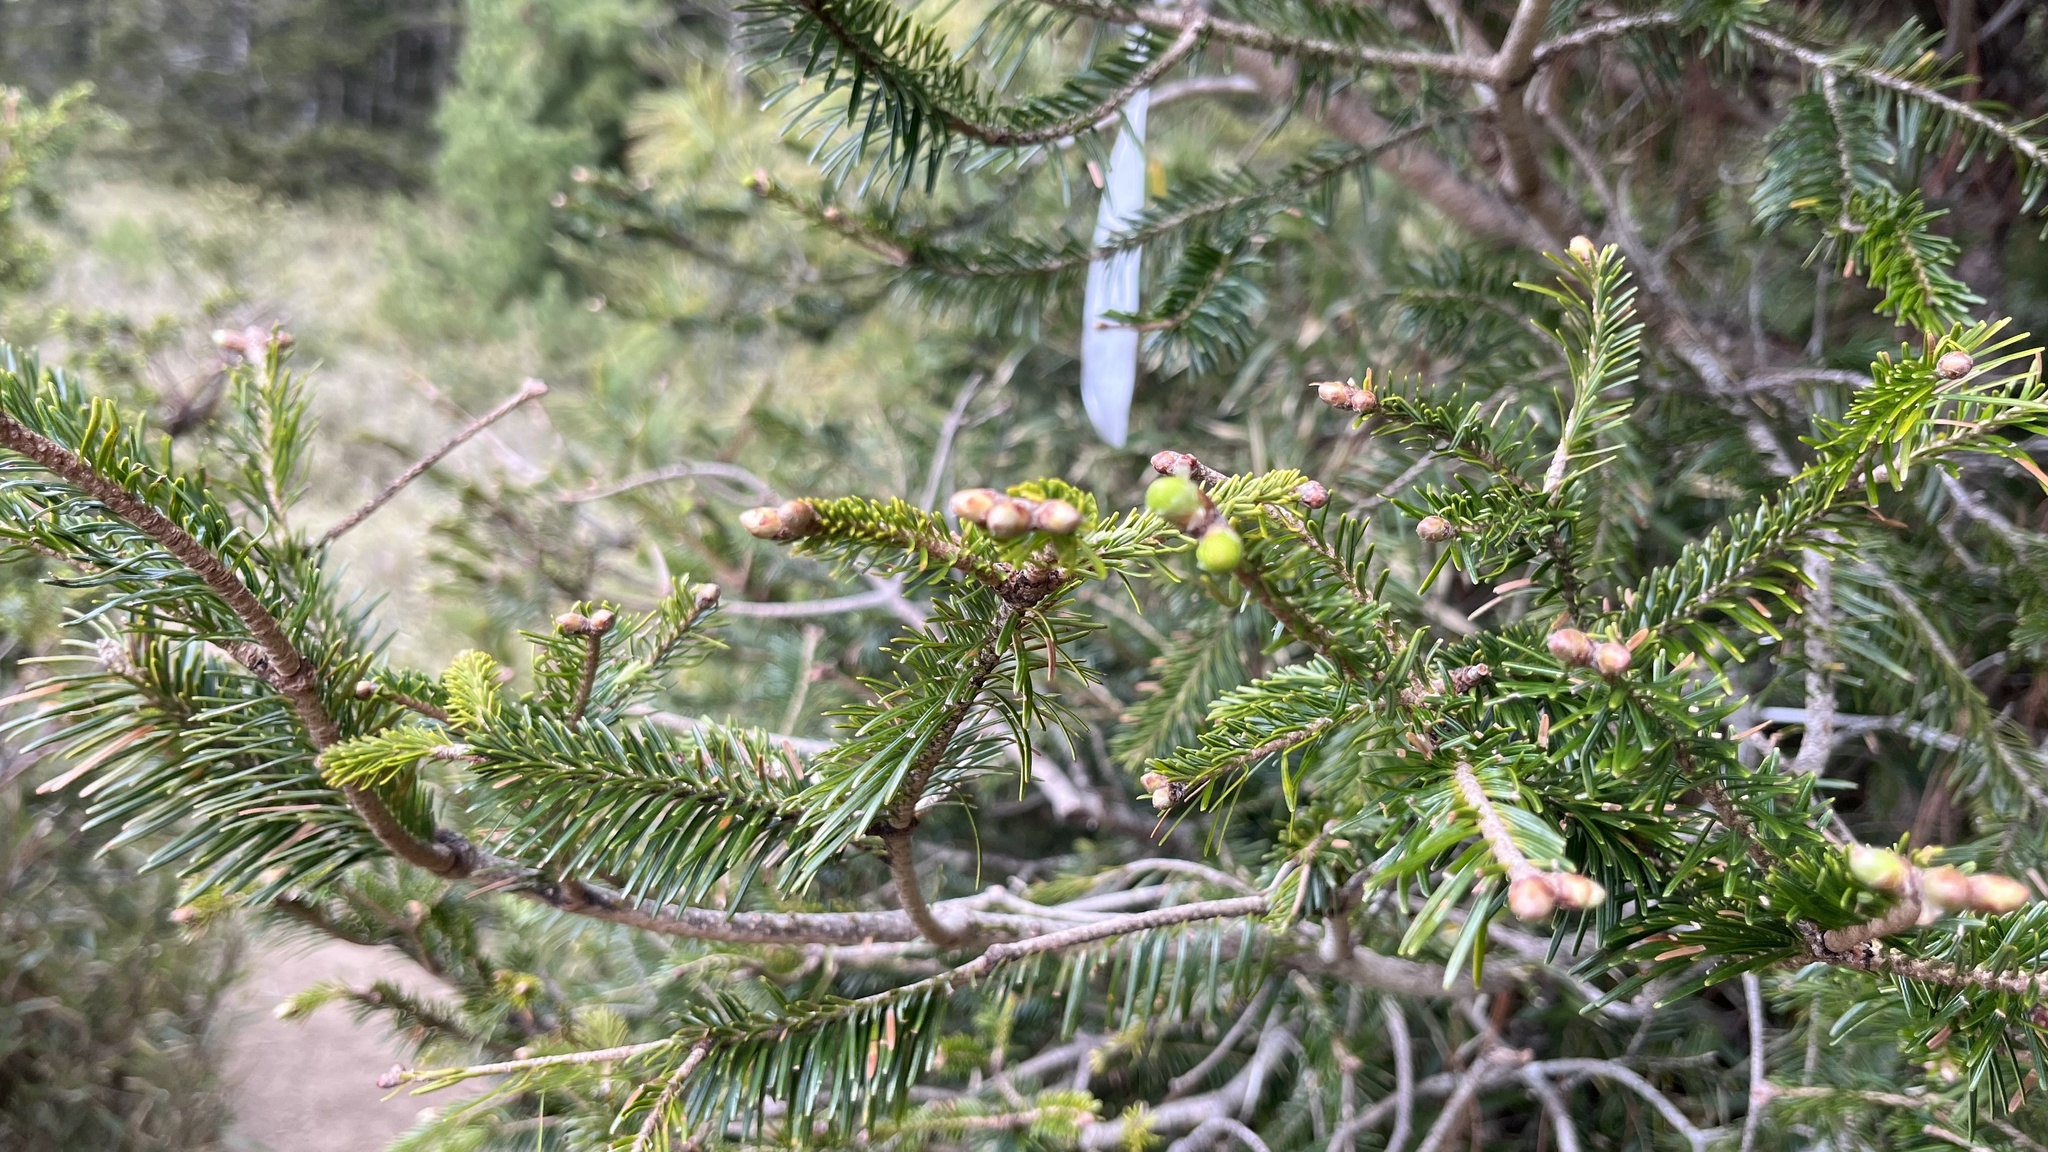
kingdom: Plantae
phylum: Tracheophyta
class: Pinopsida
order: Pinales
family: Pinaceae
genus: Abies
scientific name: Abies kawakamii
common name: Taiwan fir
